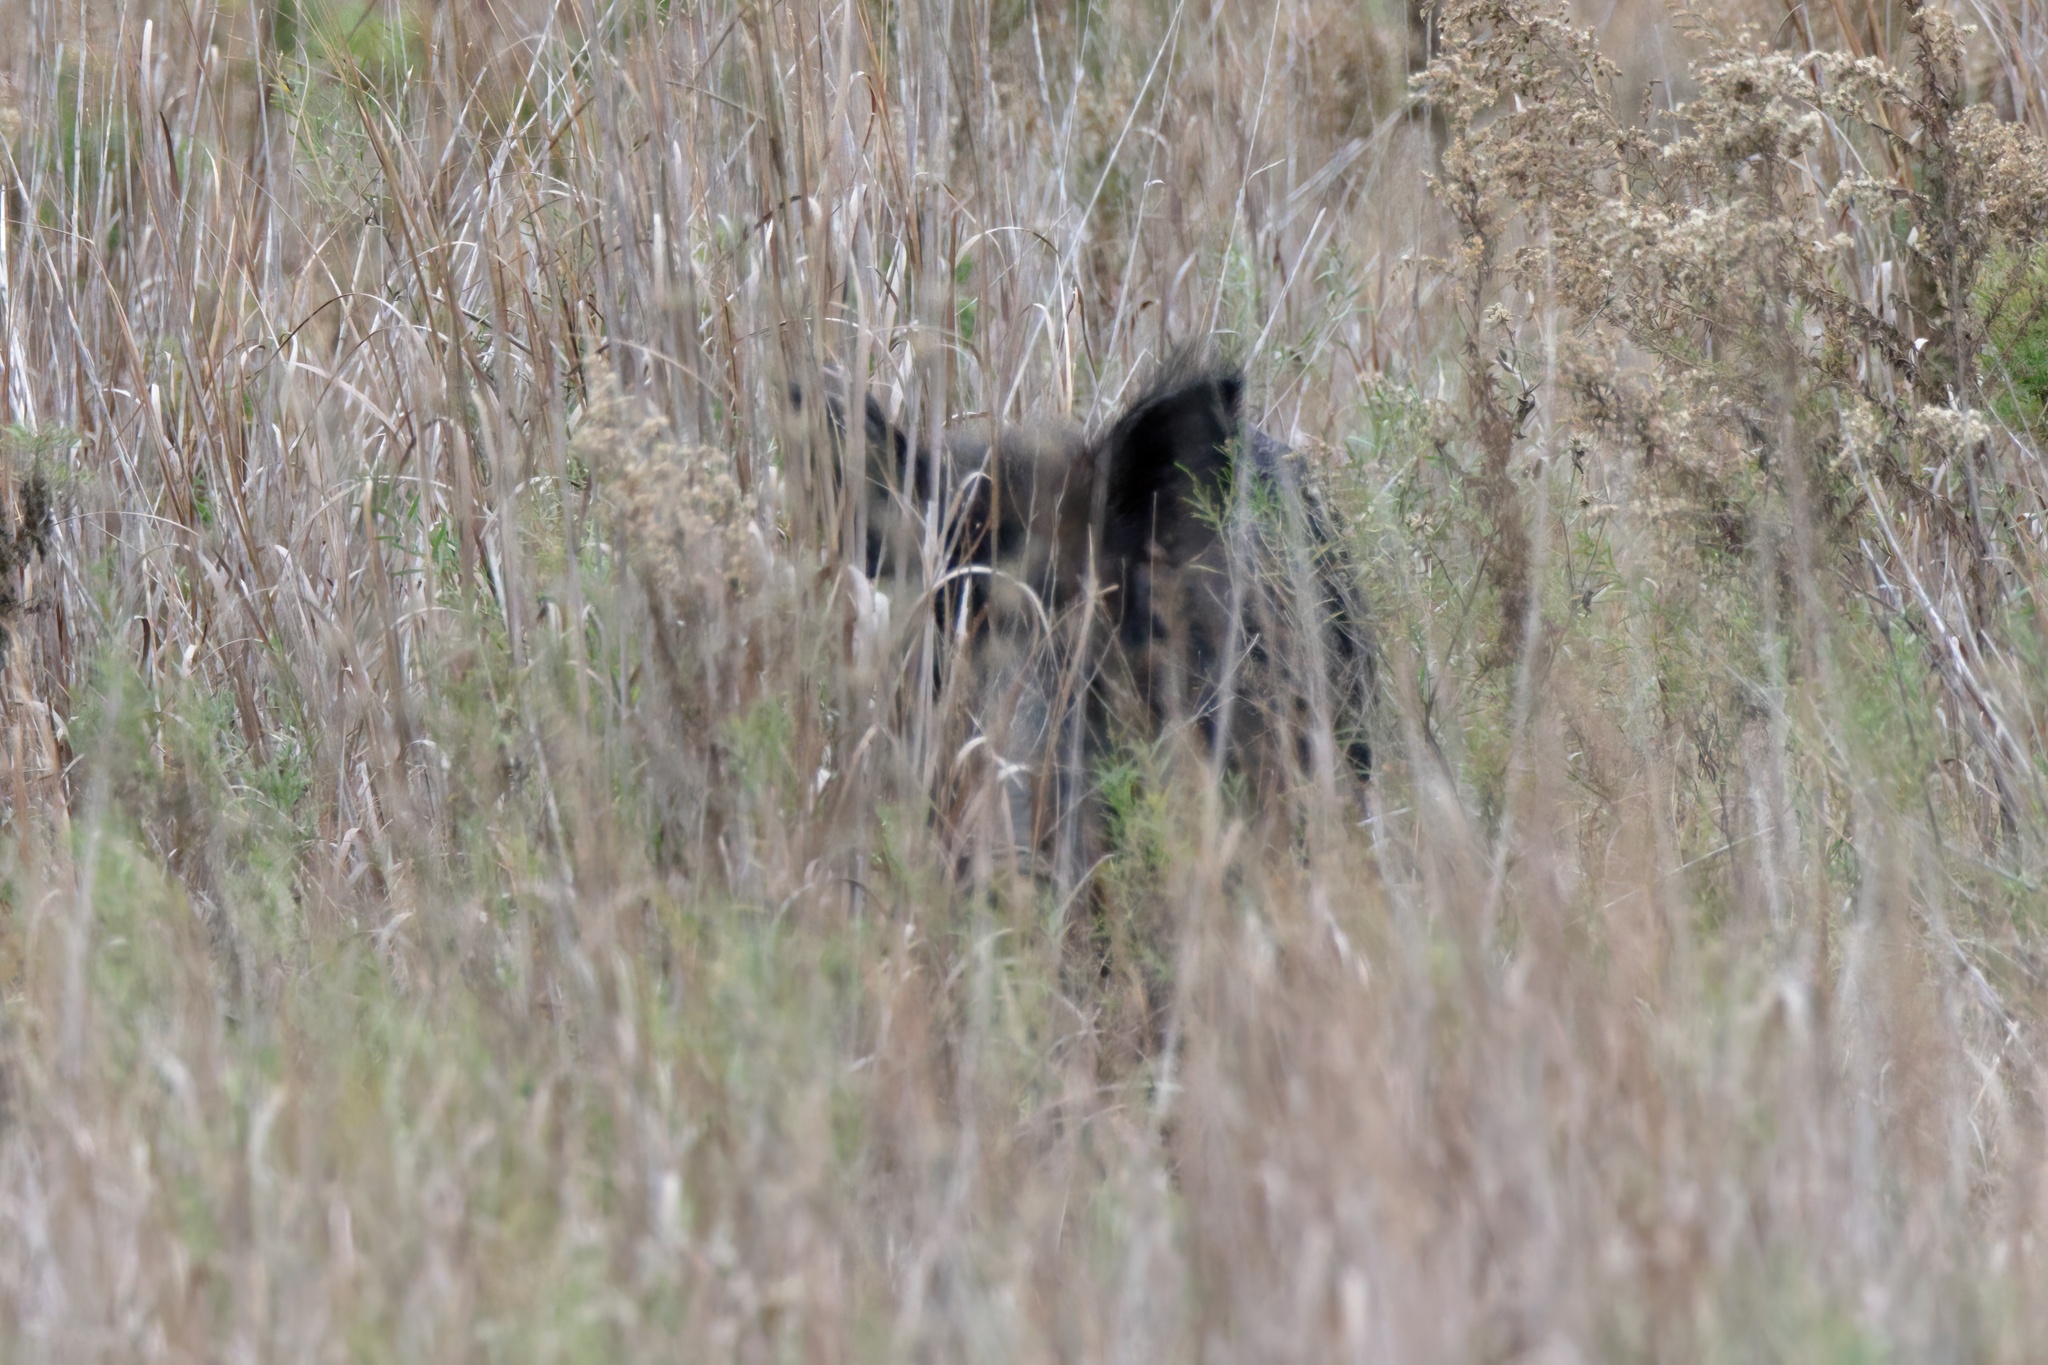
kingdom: Animalia
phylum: Chordata
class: Mammalia
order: Artiodactyla
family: Suidae
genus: Sus
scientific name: Sus scrofa
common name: Wild boar
